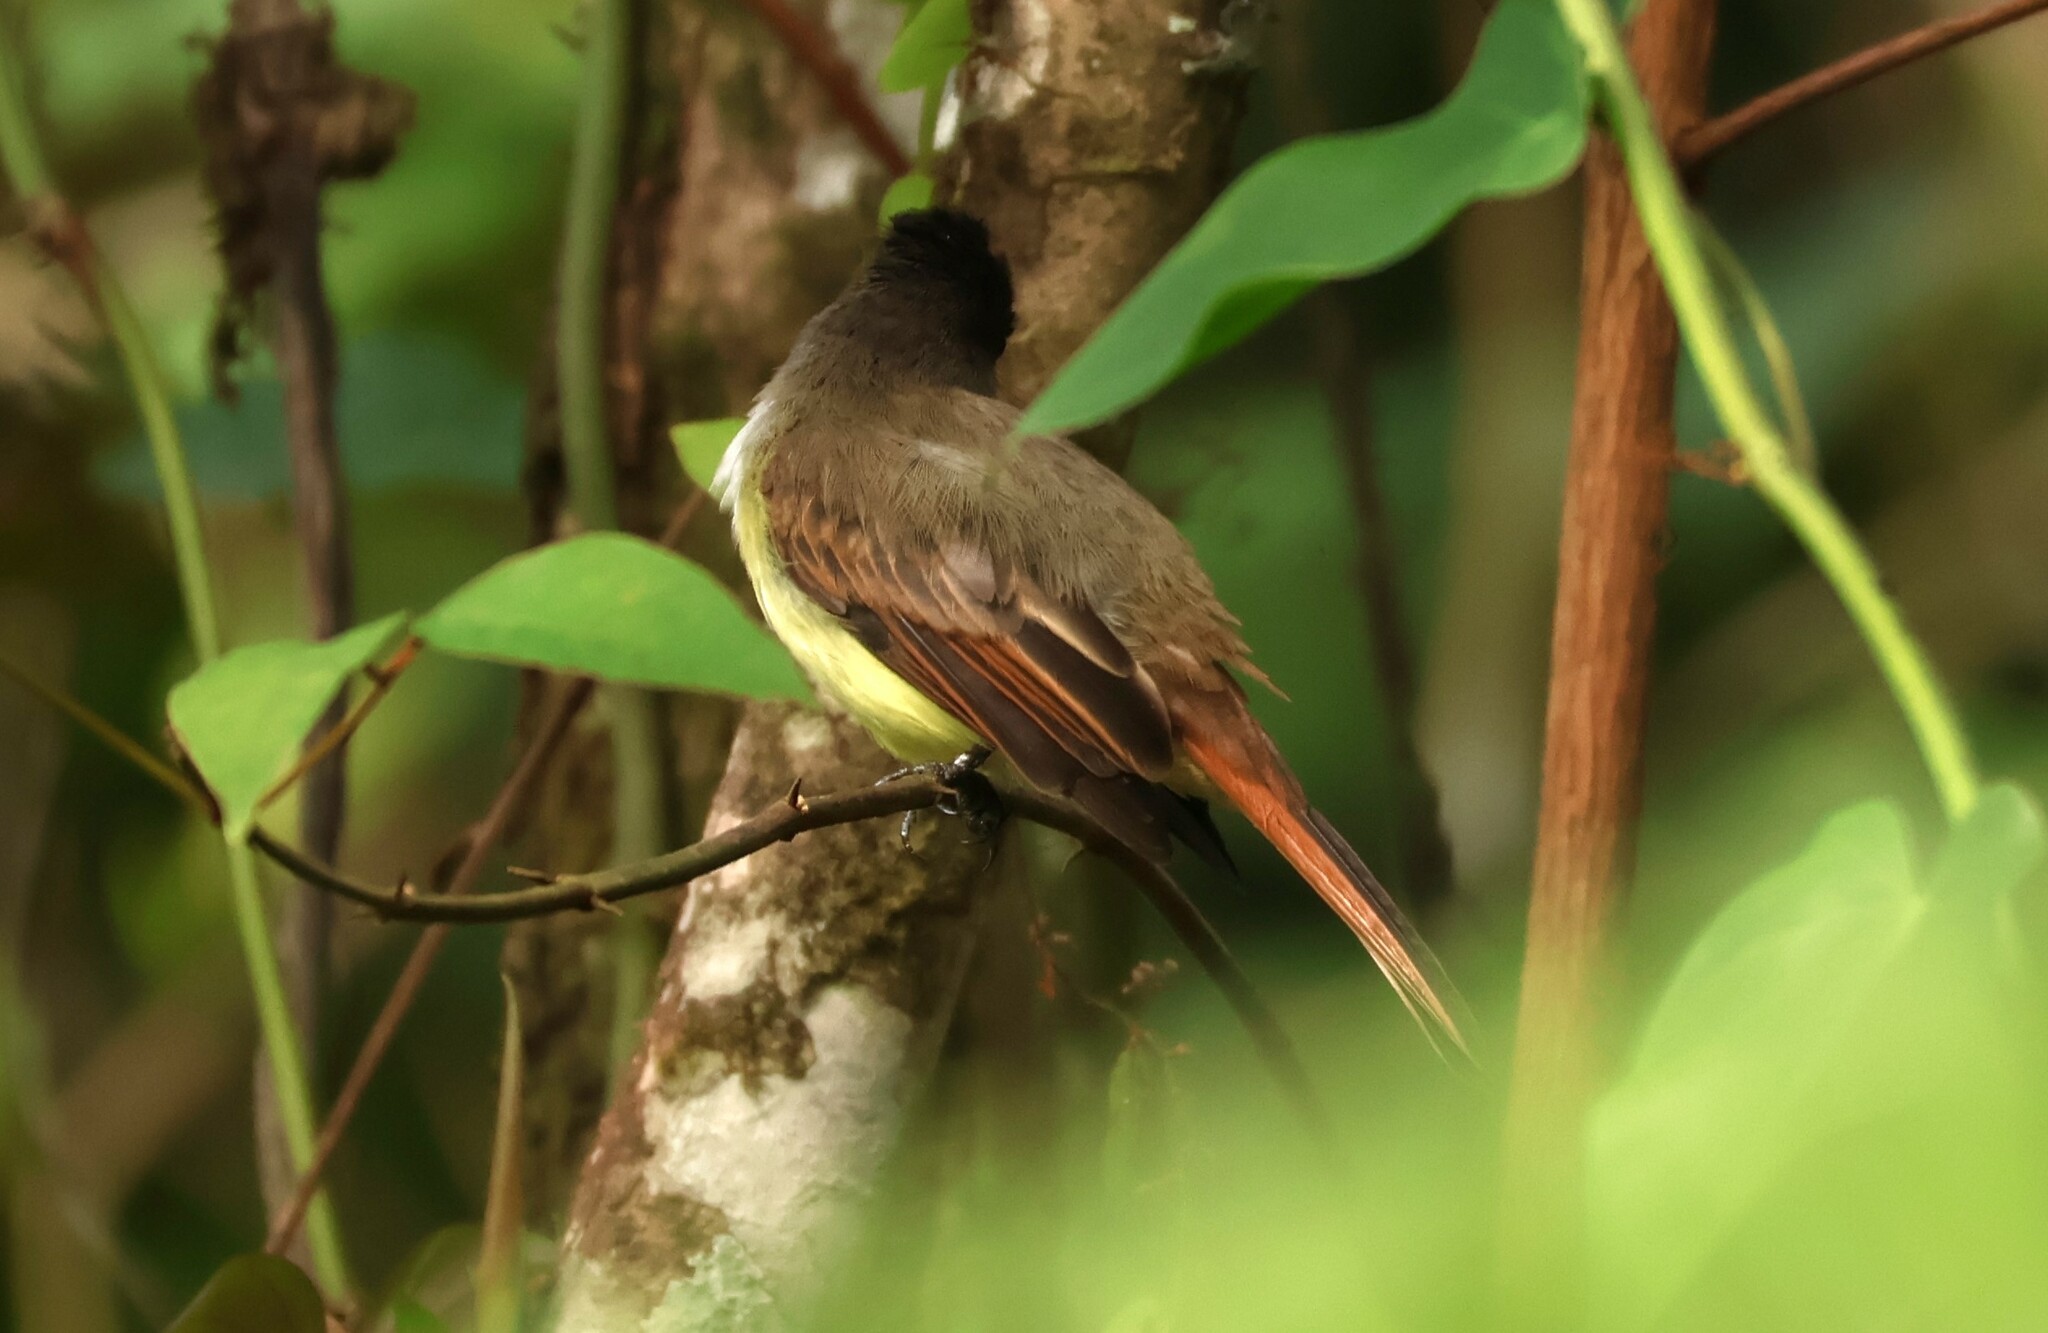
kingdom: Animalia
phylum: Chordata
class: Aves
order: Passeriformes
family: Tyrannidae
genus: Myiarchus
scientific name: Myiarchus tuberculifer
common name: Dusky-capped flycatcher
